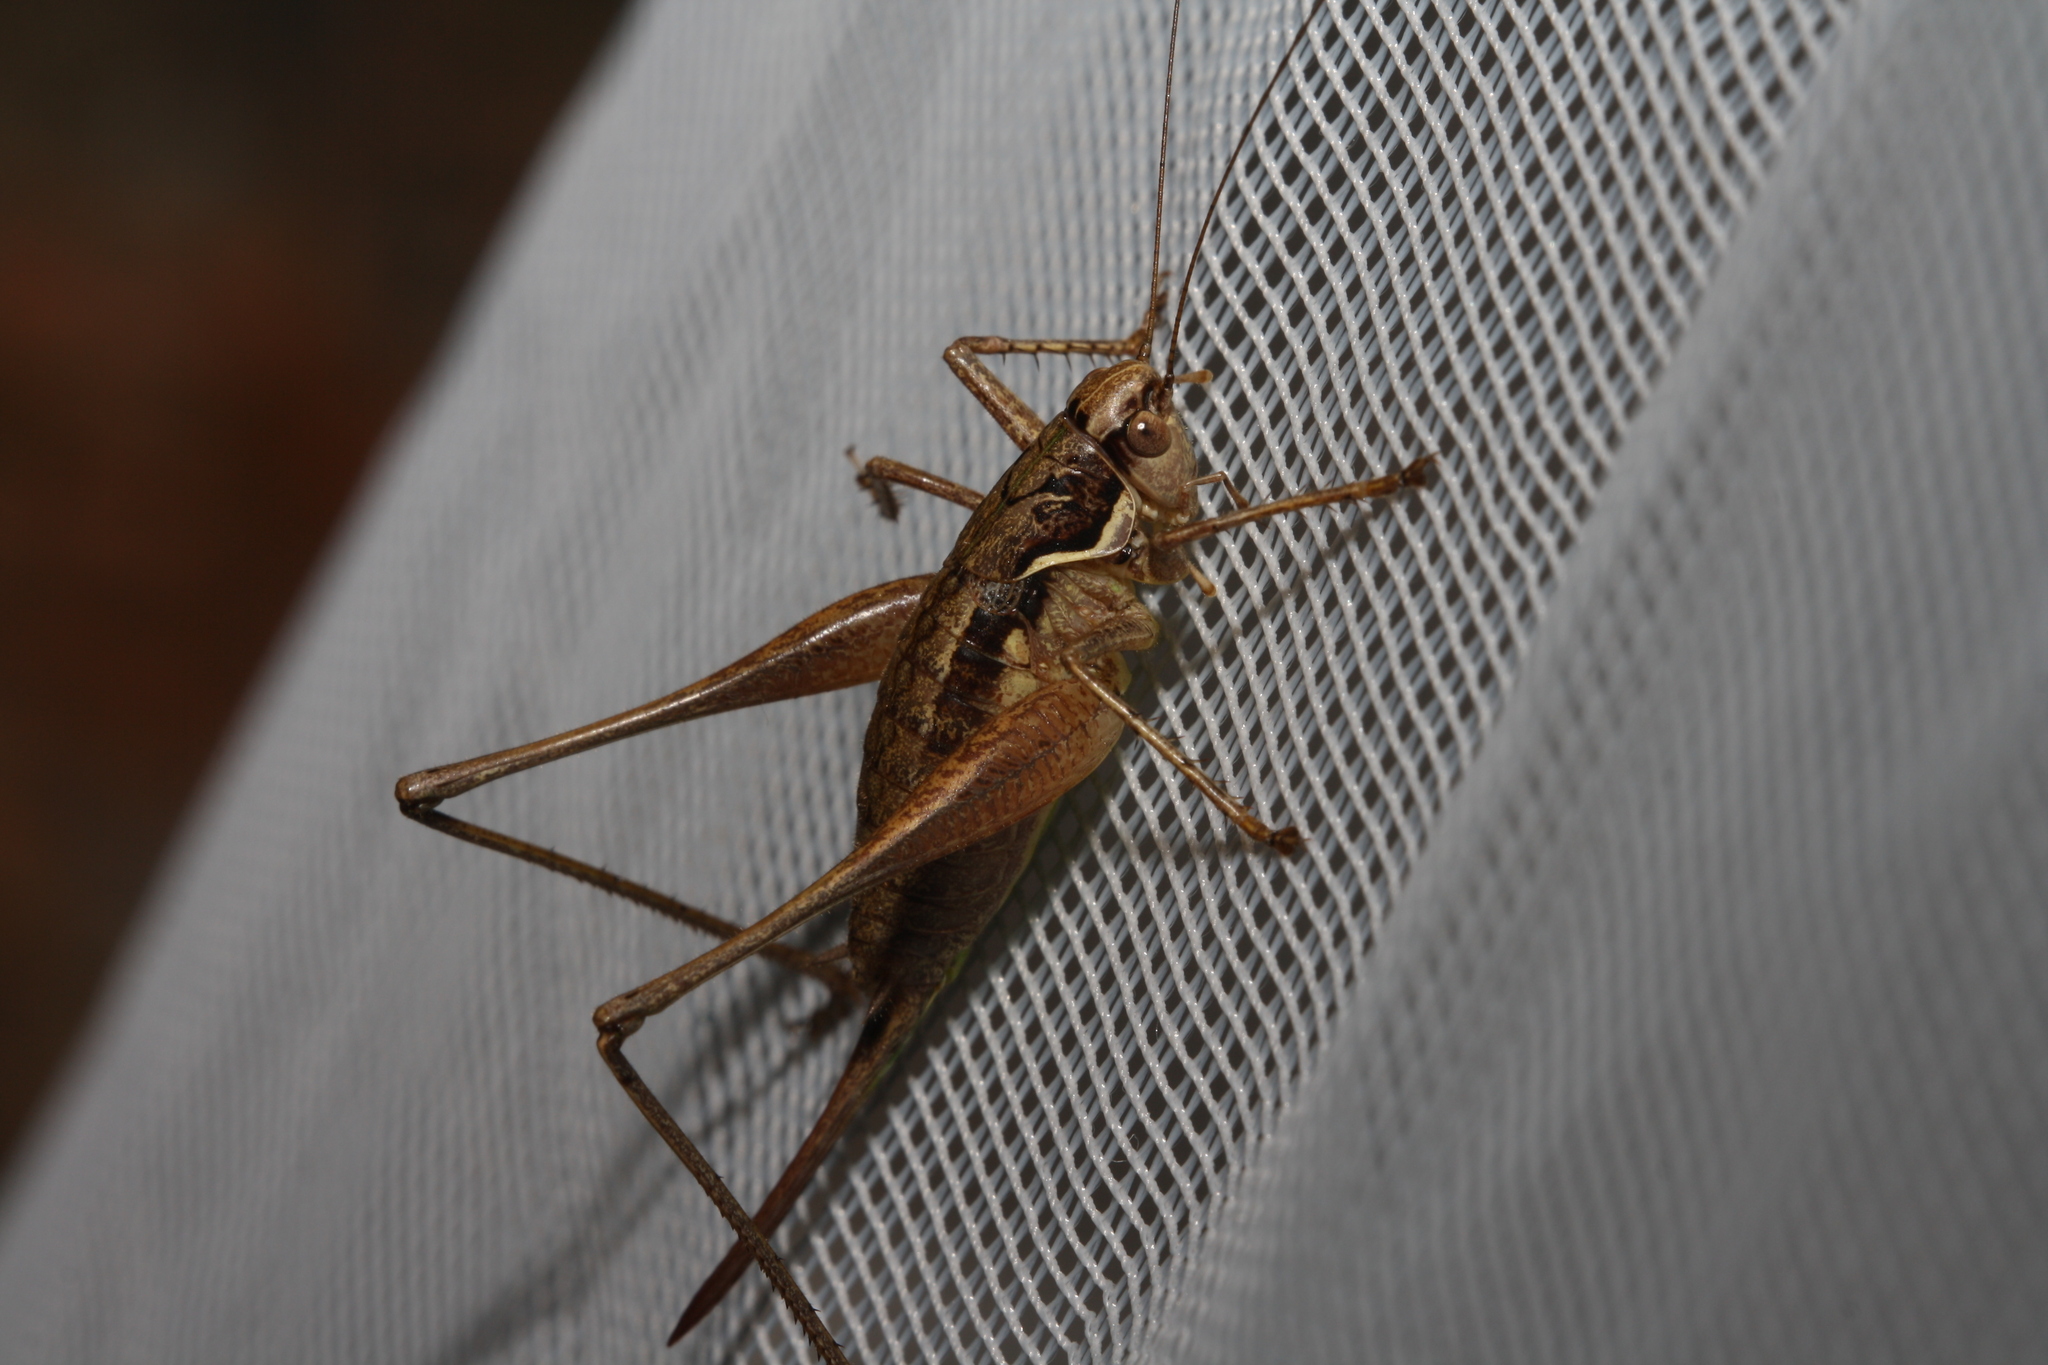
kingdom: Animalia
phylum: Arthropoda
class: Insecta
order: Orthoptera
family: Tettigoniidae
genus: Pachytrachis
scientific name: Pachytrachis gracilis
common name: Graceful bush-cricket
